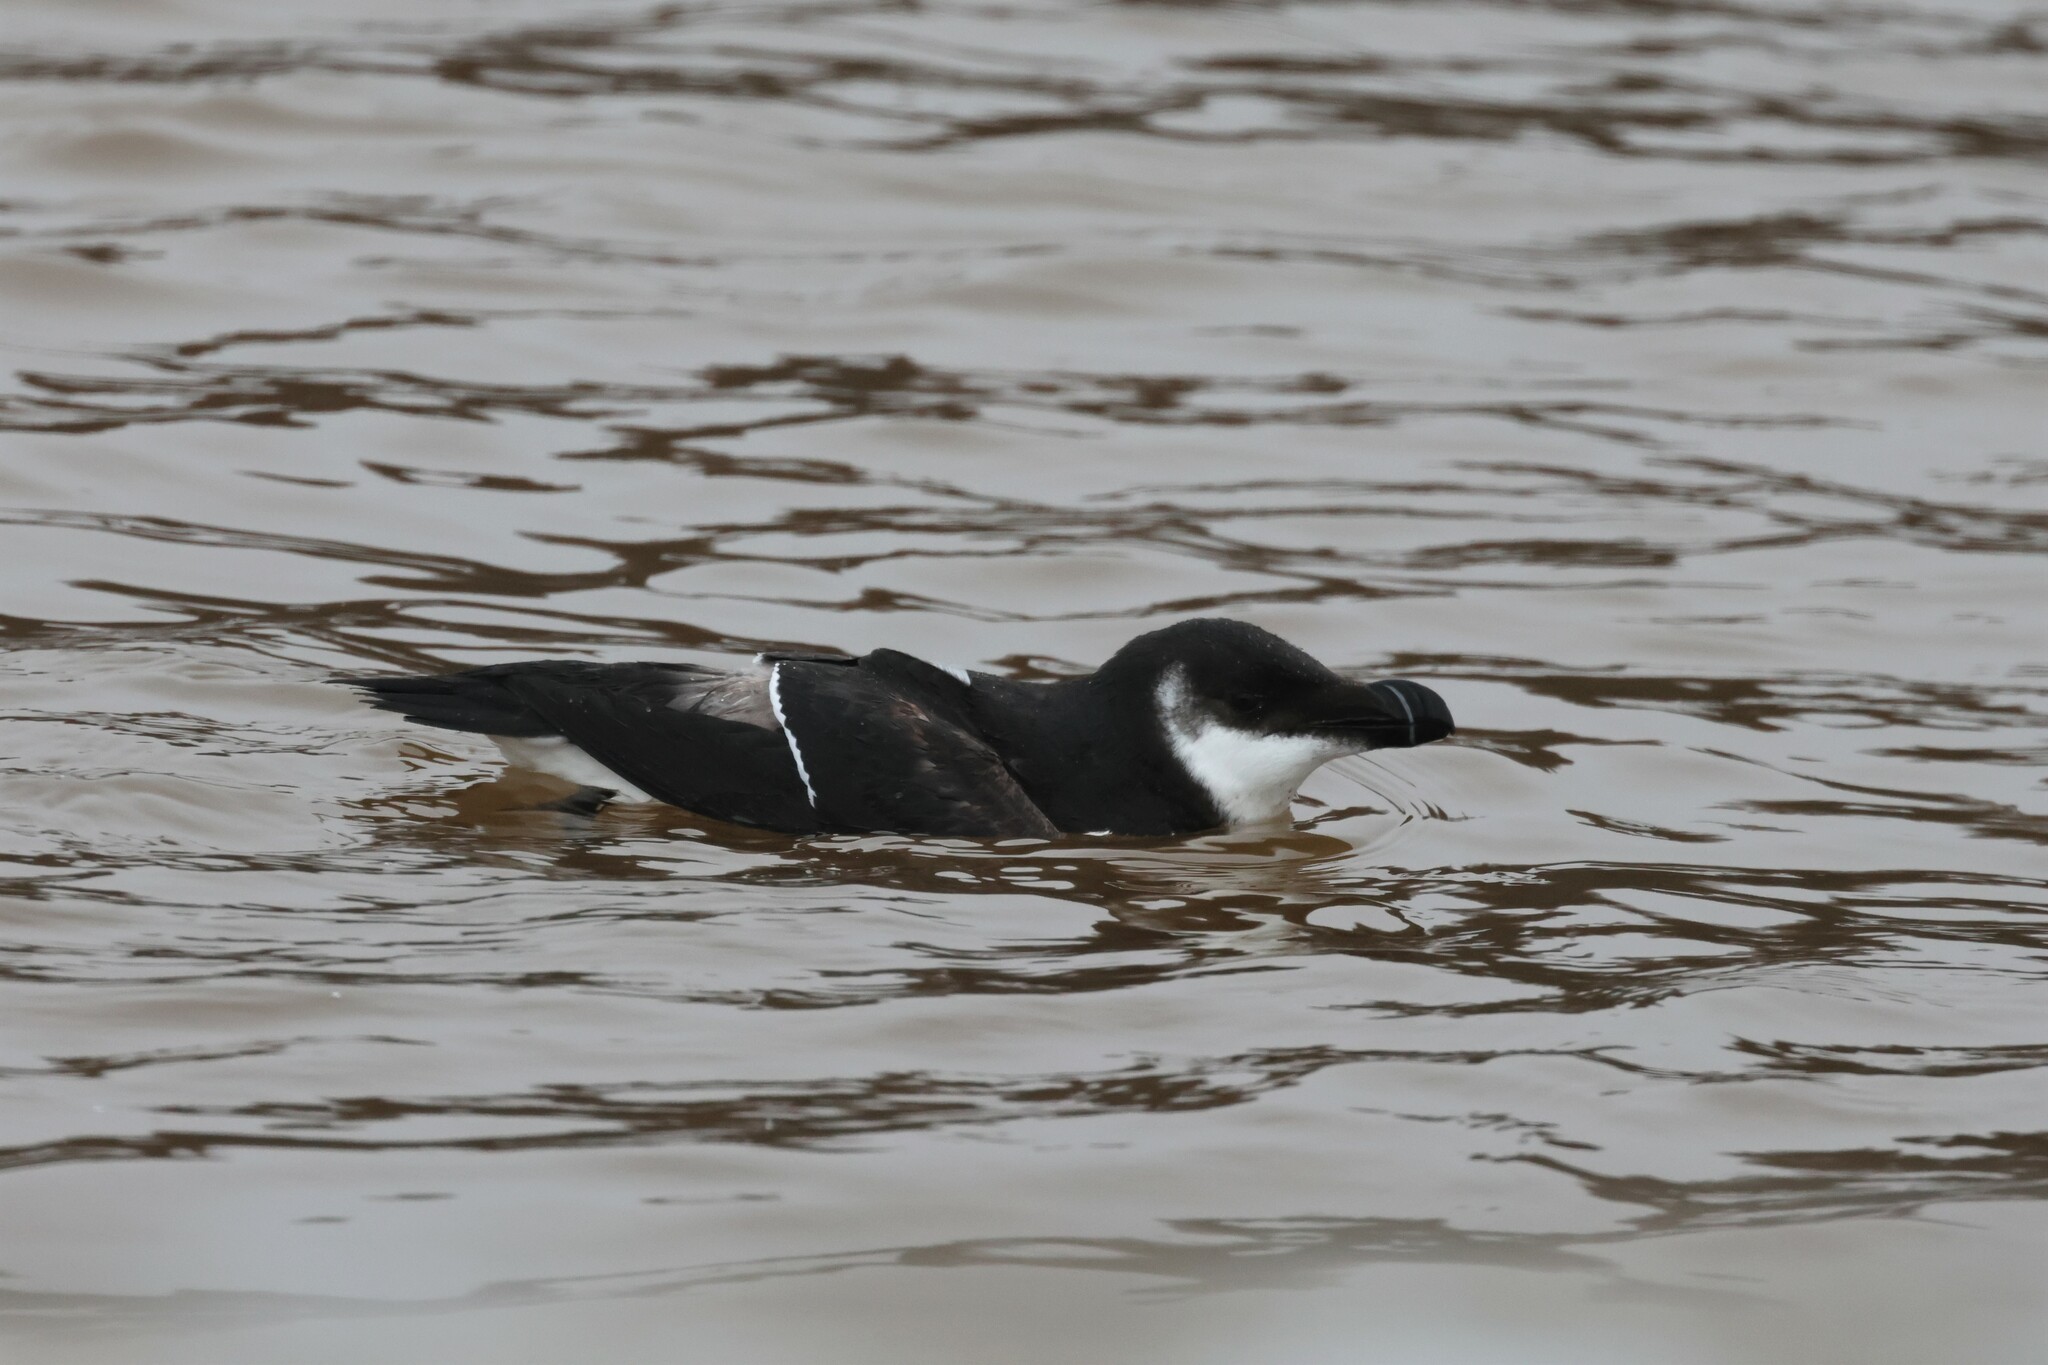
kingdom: Animalia
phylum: Chordata
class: Aves
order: Charadriiformes
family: Alcidae
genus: Alca
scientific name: Alca torda
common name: Razorbill
